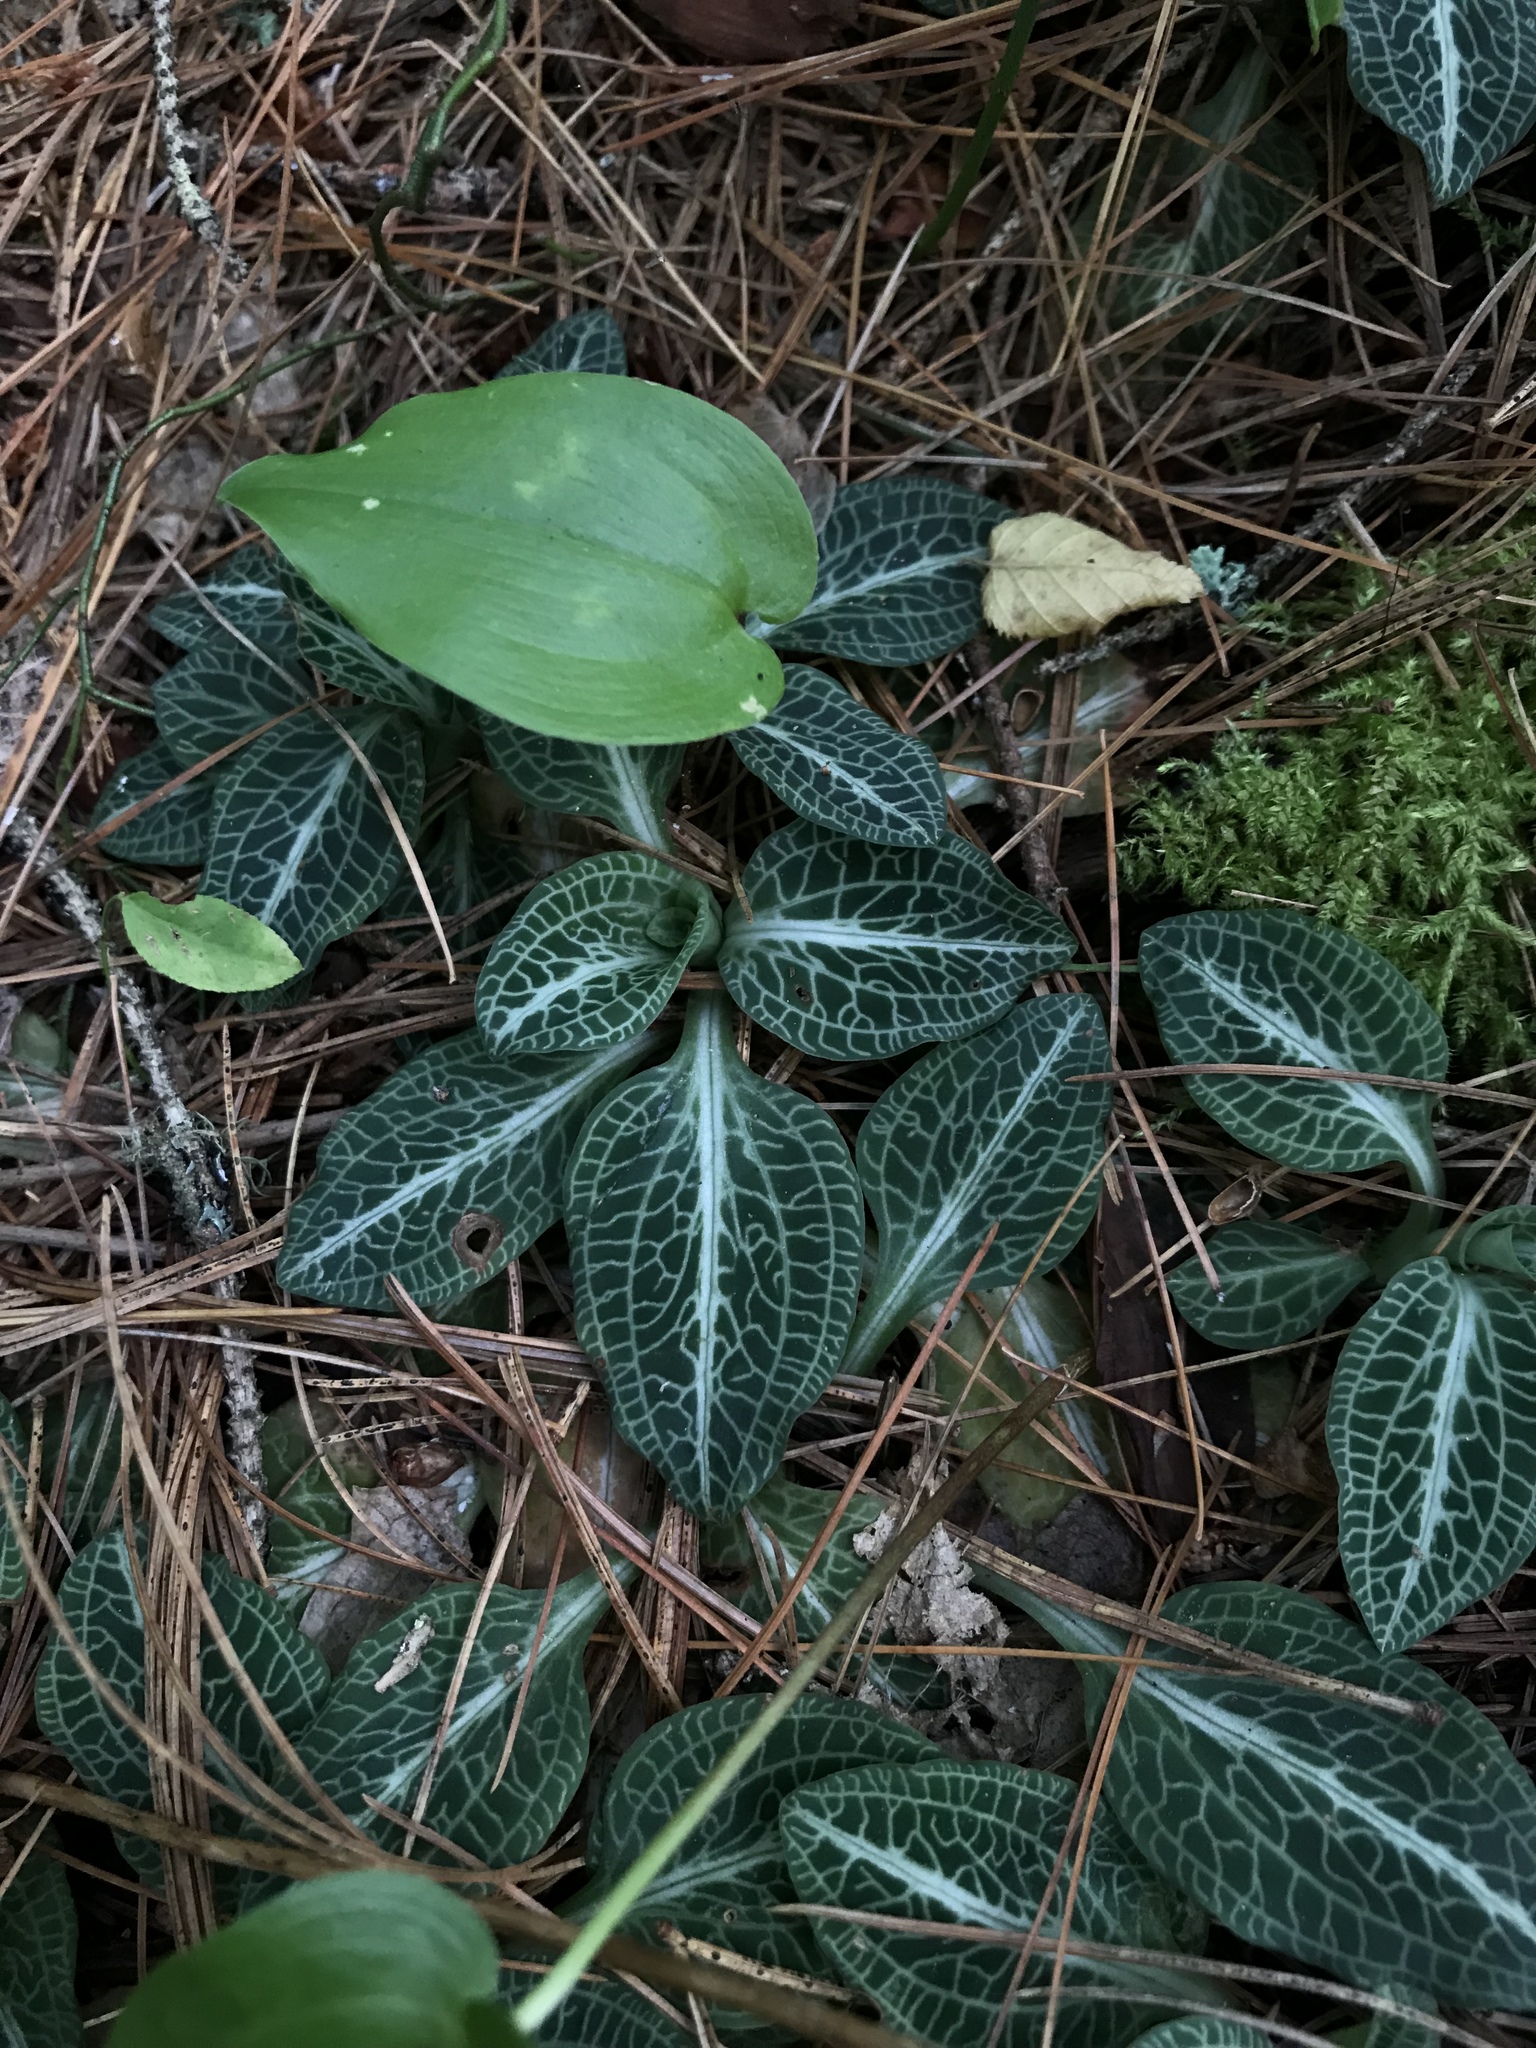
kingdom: Plantae
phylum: Tracheophyta
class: Liliopsida
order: Asparagales
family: Orchidaceae
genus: Goodyera
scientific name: Goodyera pubescens
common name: Downy rattlesnake-plantain
